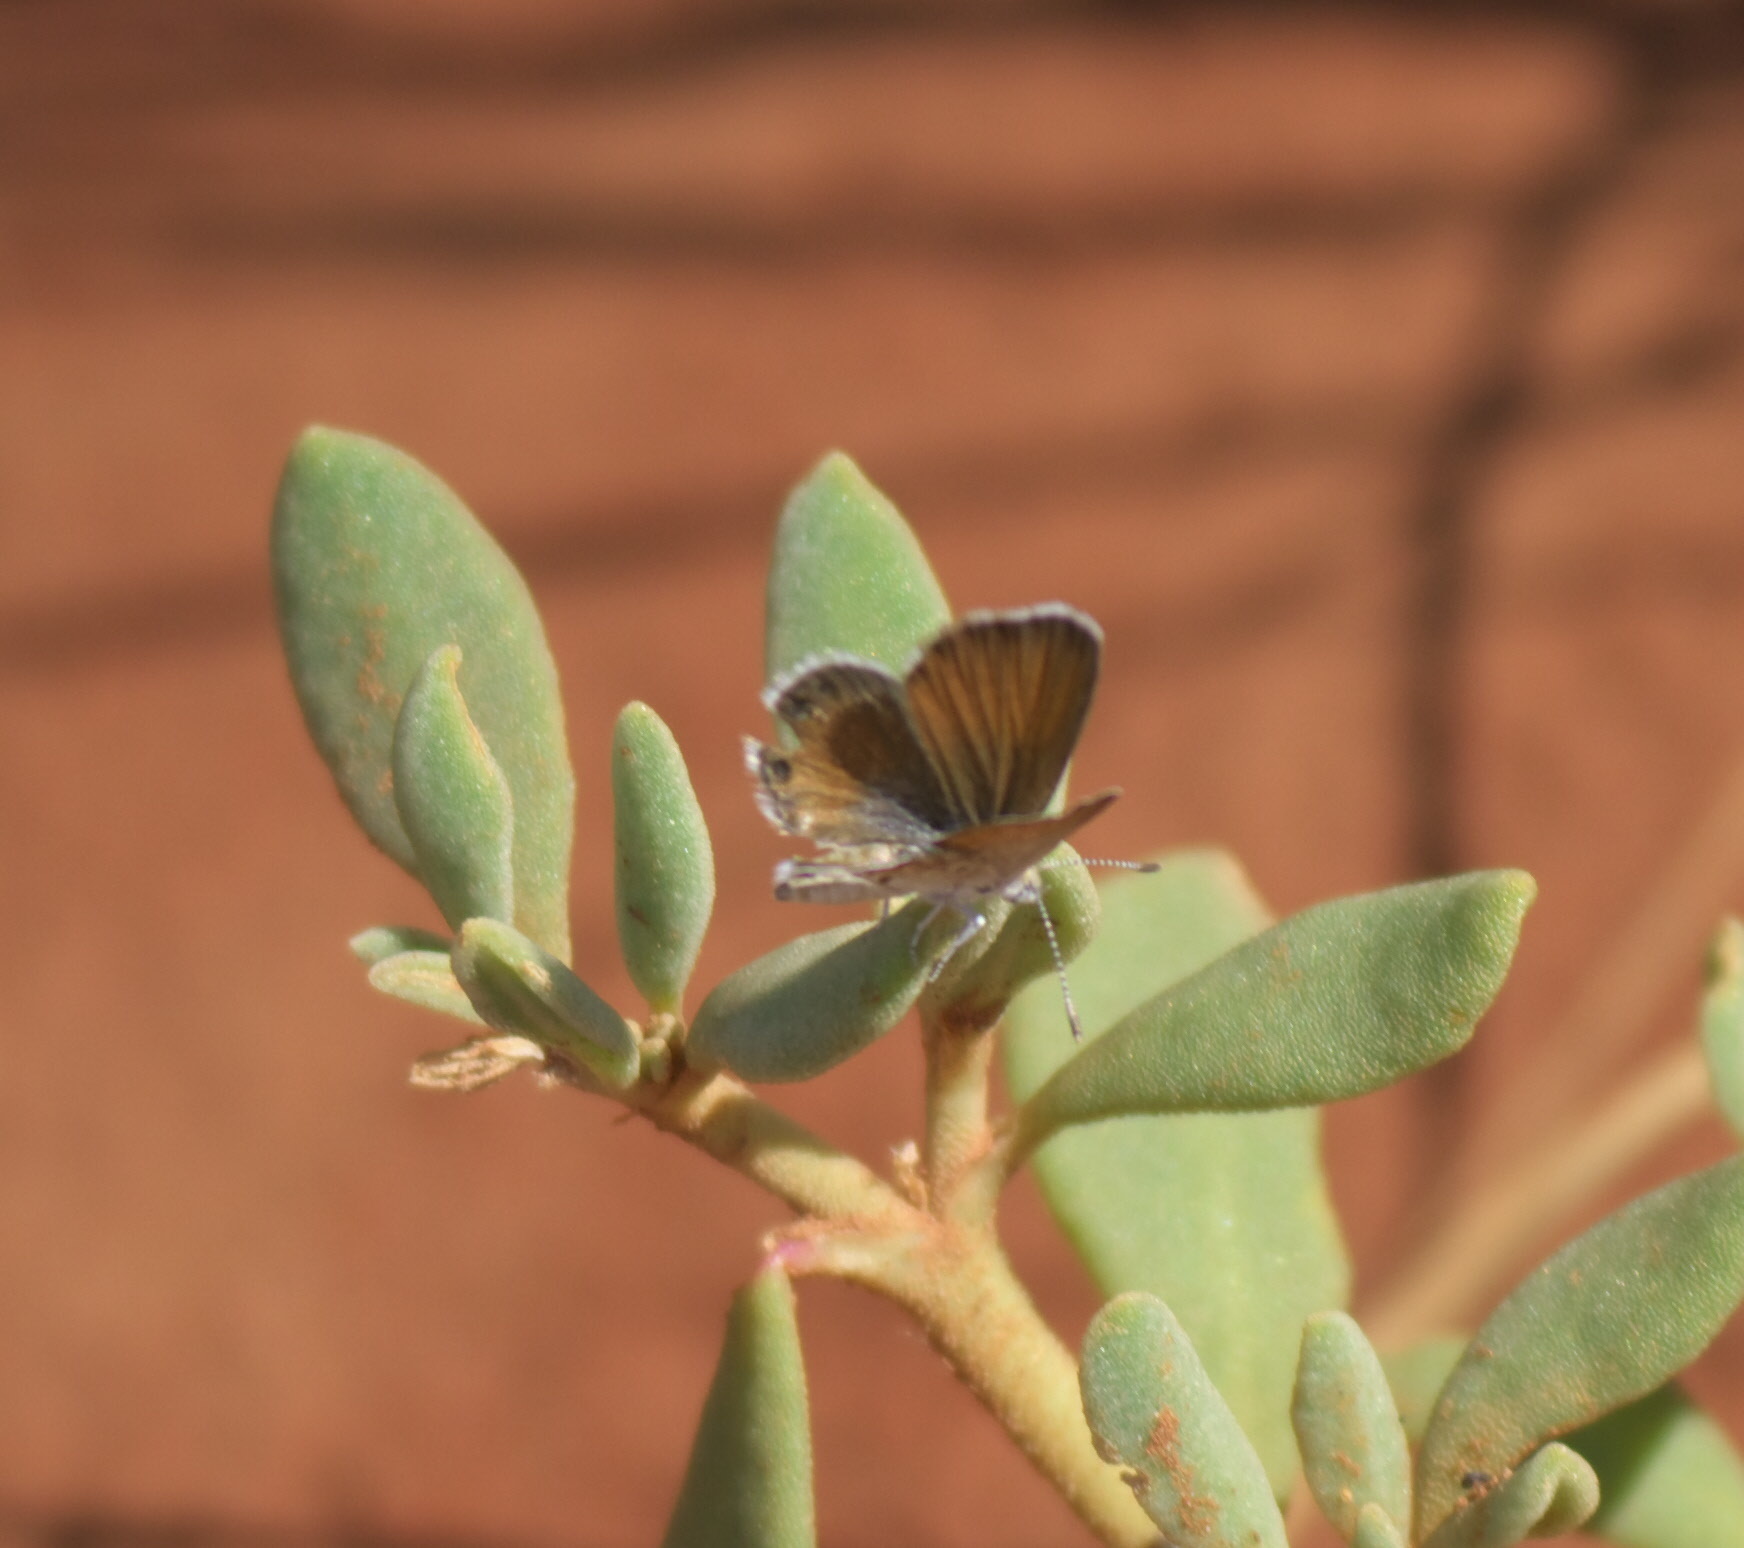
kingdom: Animalia
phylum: Arthropoda
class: Insecta
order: Lepidoptera
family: Lycaenidae
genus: Brephidium
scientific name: Brephidium exilis
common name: Pygmy blue
